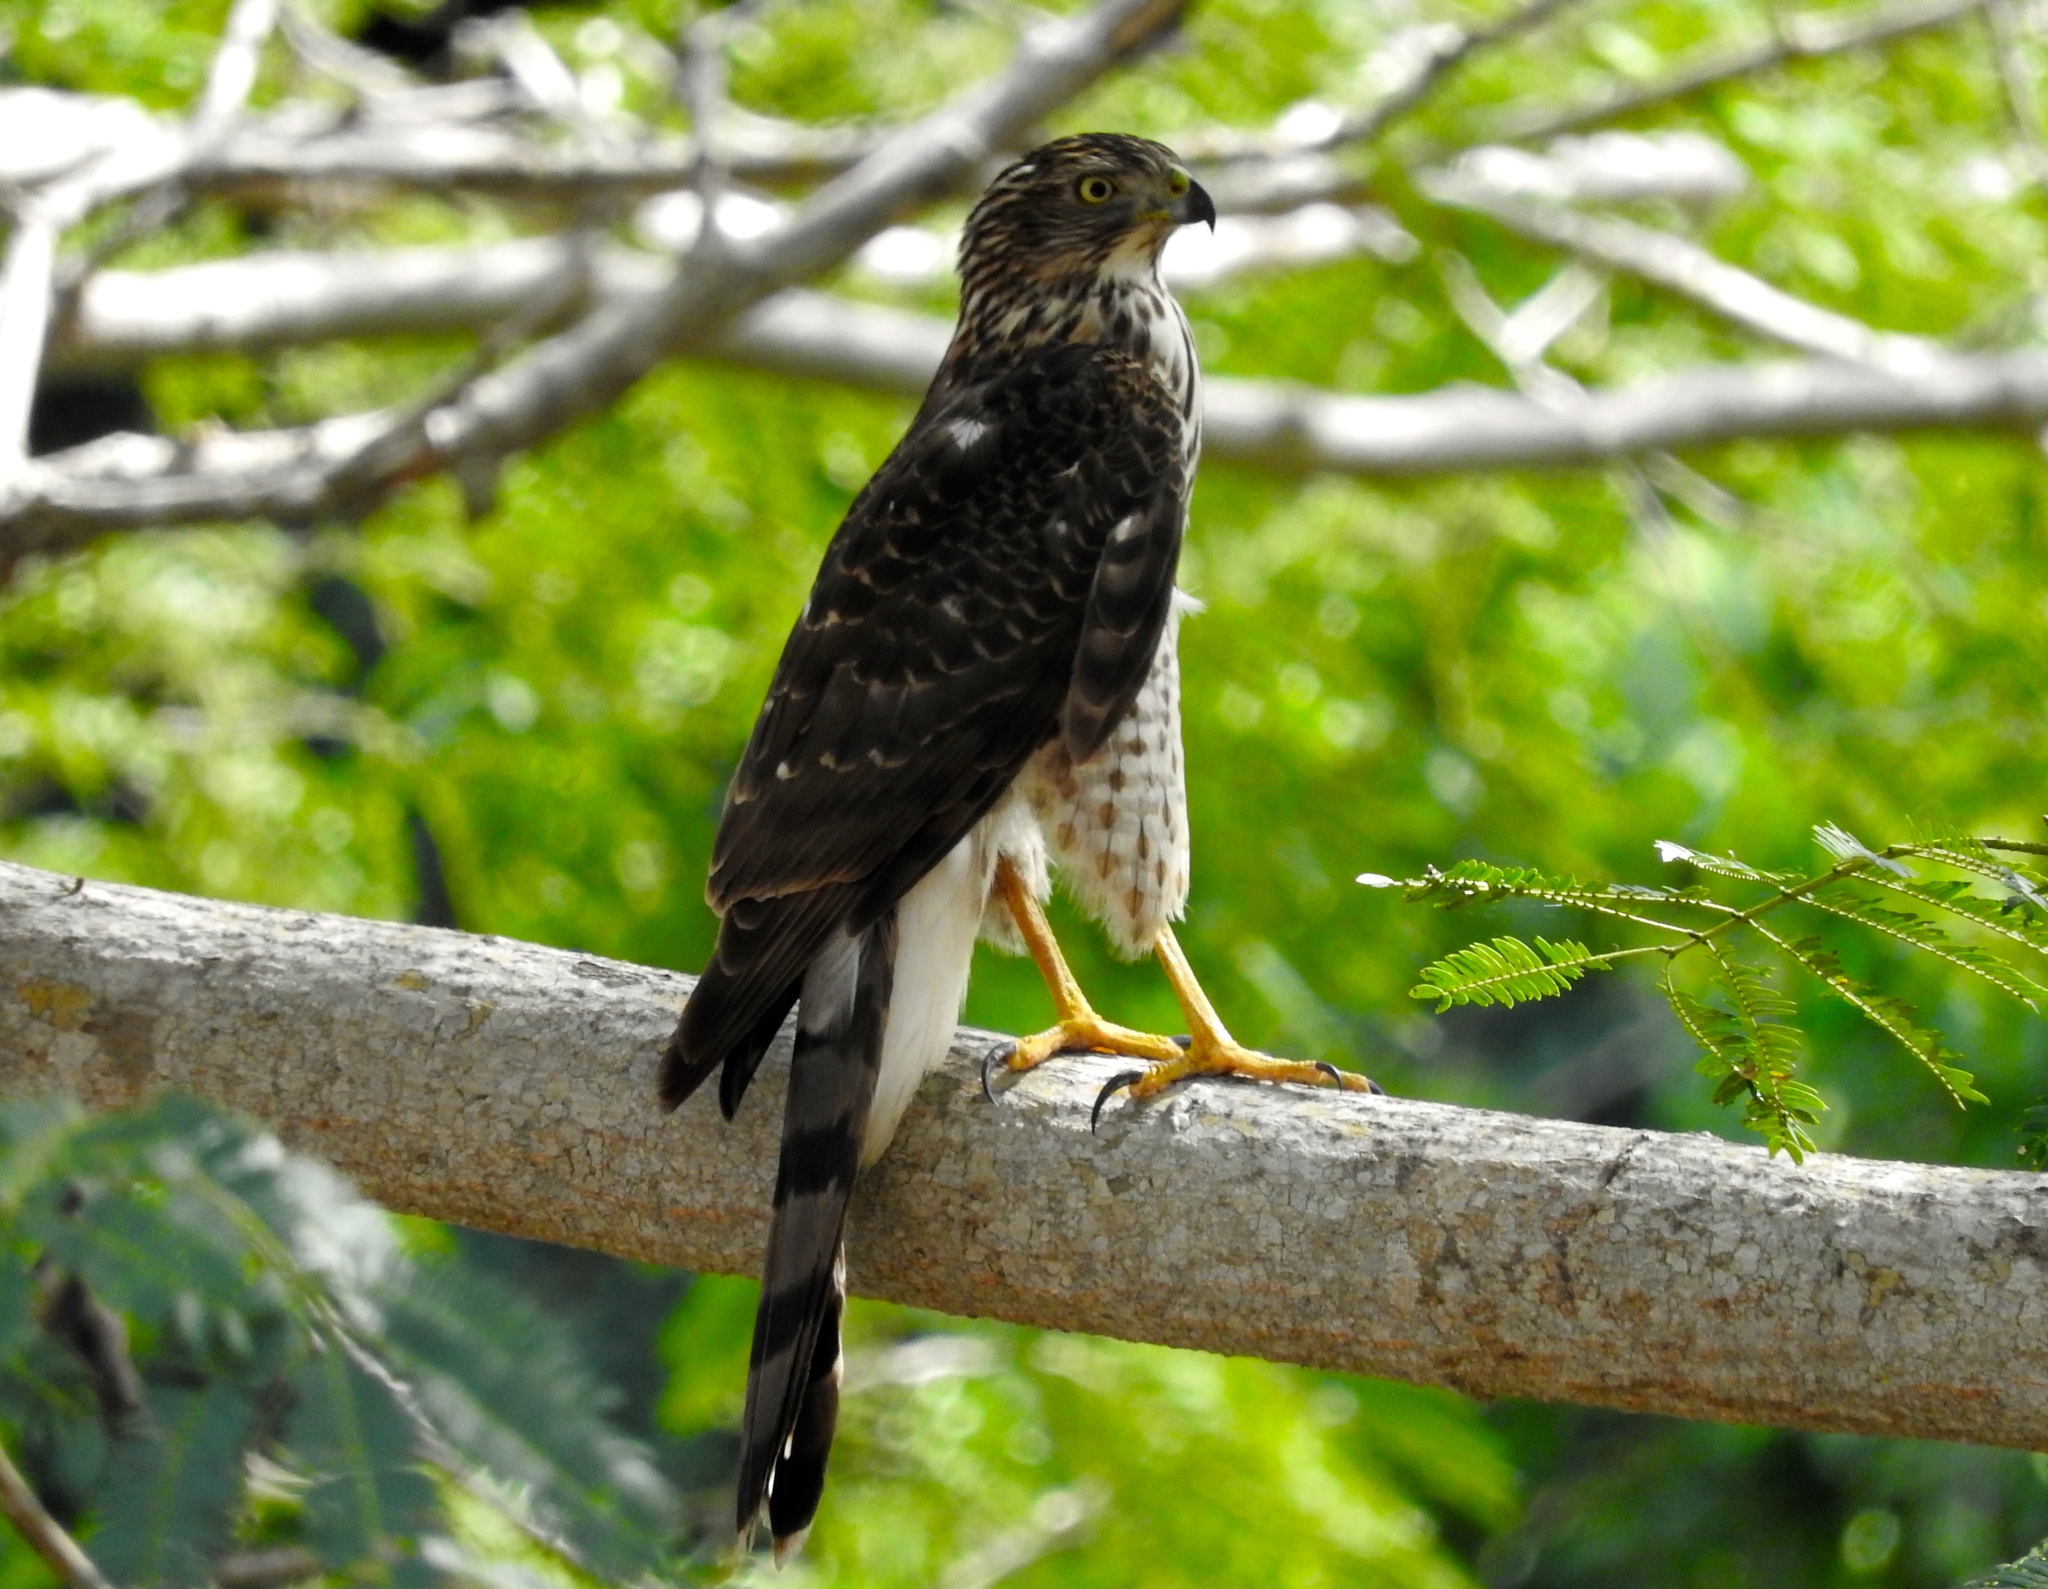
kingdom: Animalia
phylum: Chordata
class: Aves
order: Accipitriformes
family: Accipitridae
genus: Accipiter
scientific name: Accipiter cooperii
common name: Cooper's hawk
